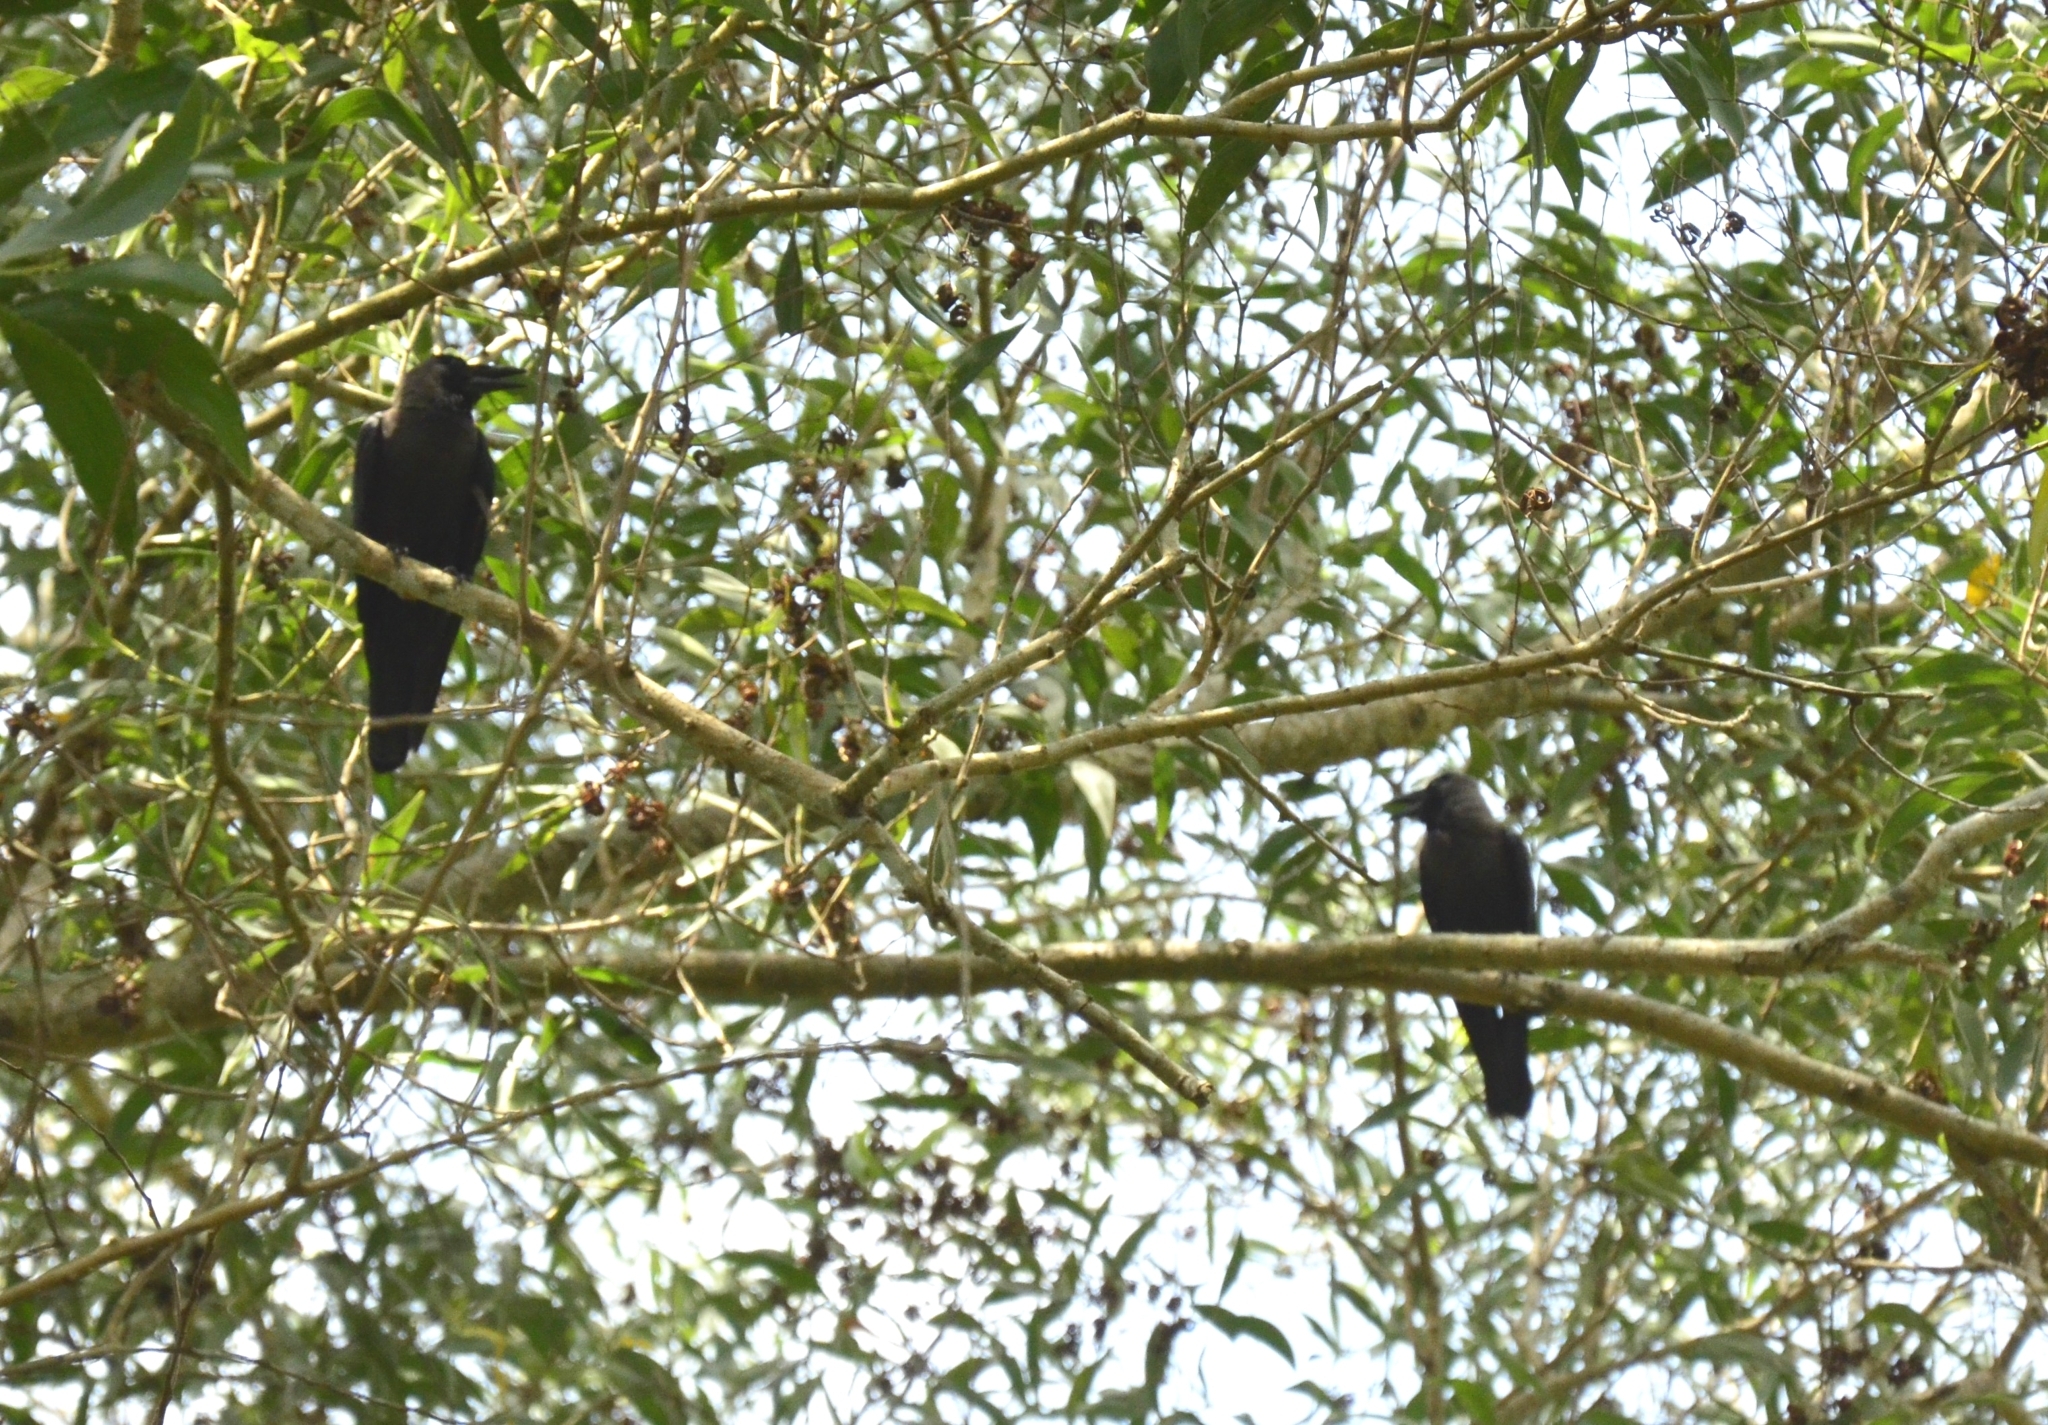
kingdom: Animalia
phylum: Chordata
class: Aves
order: Passeriformes
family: Corvidae
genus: Corvus
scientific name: Corvus splendens
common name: House crow
